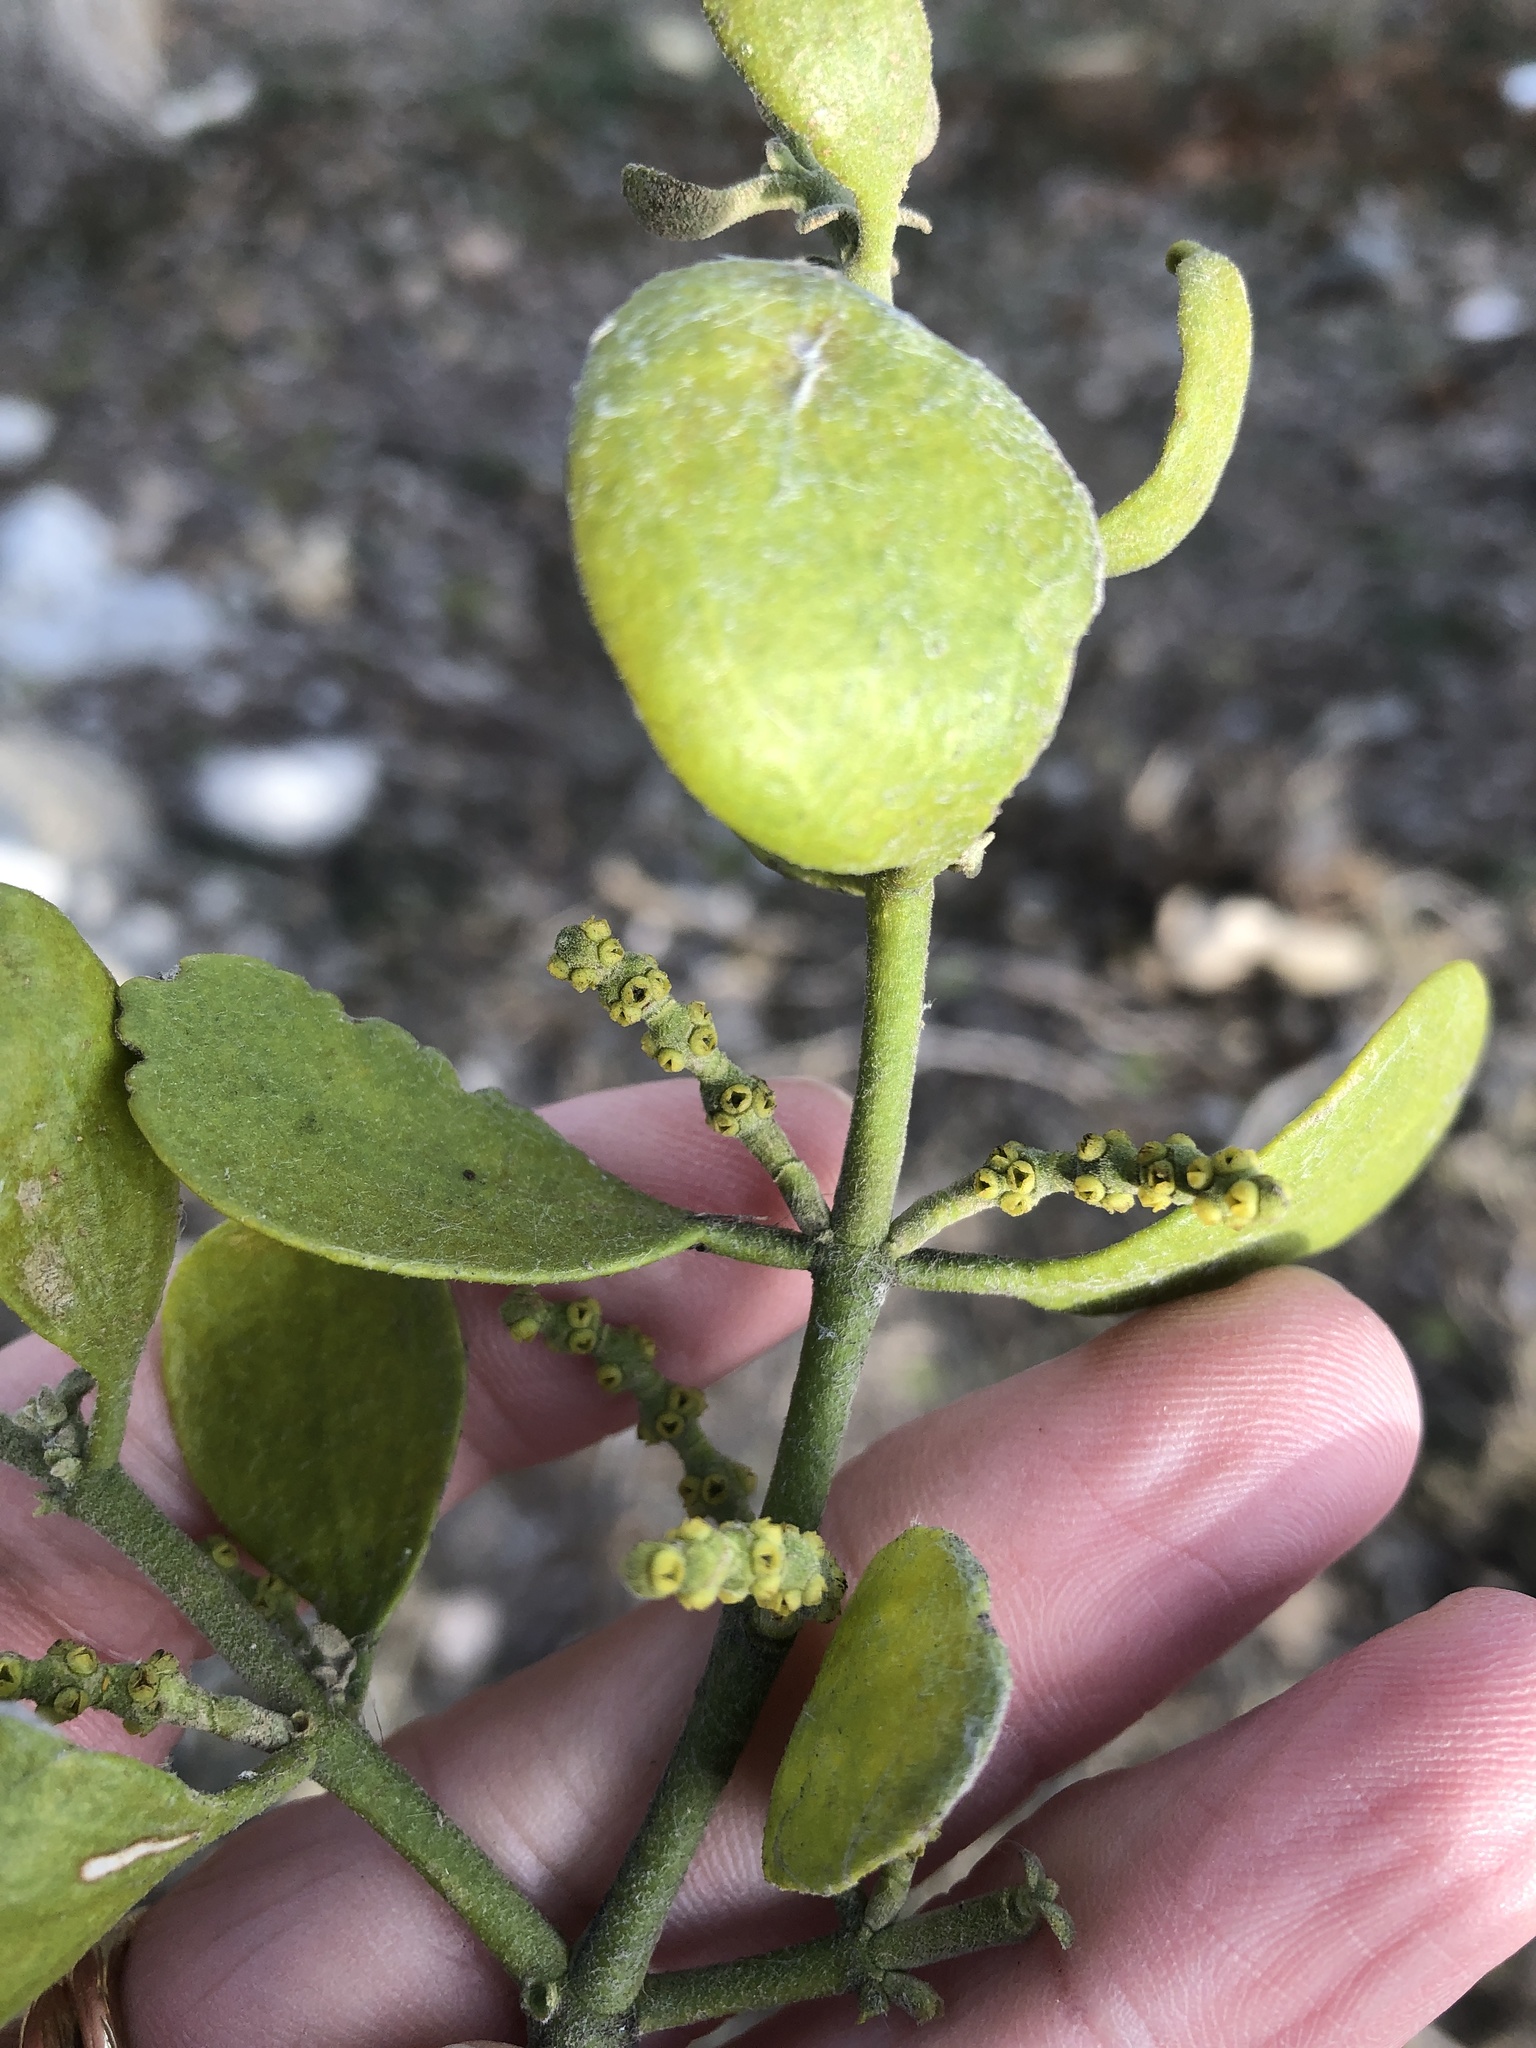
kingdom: Plantae
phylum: Tracheophyta
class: Magnoliopsida
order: Santalales
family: Viscaceae
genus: Phoradendron
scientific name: Phoradendron leucarpum
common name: Pacific mistletoe
